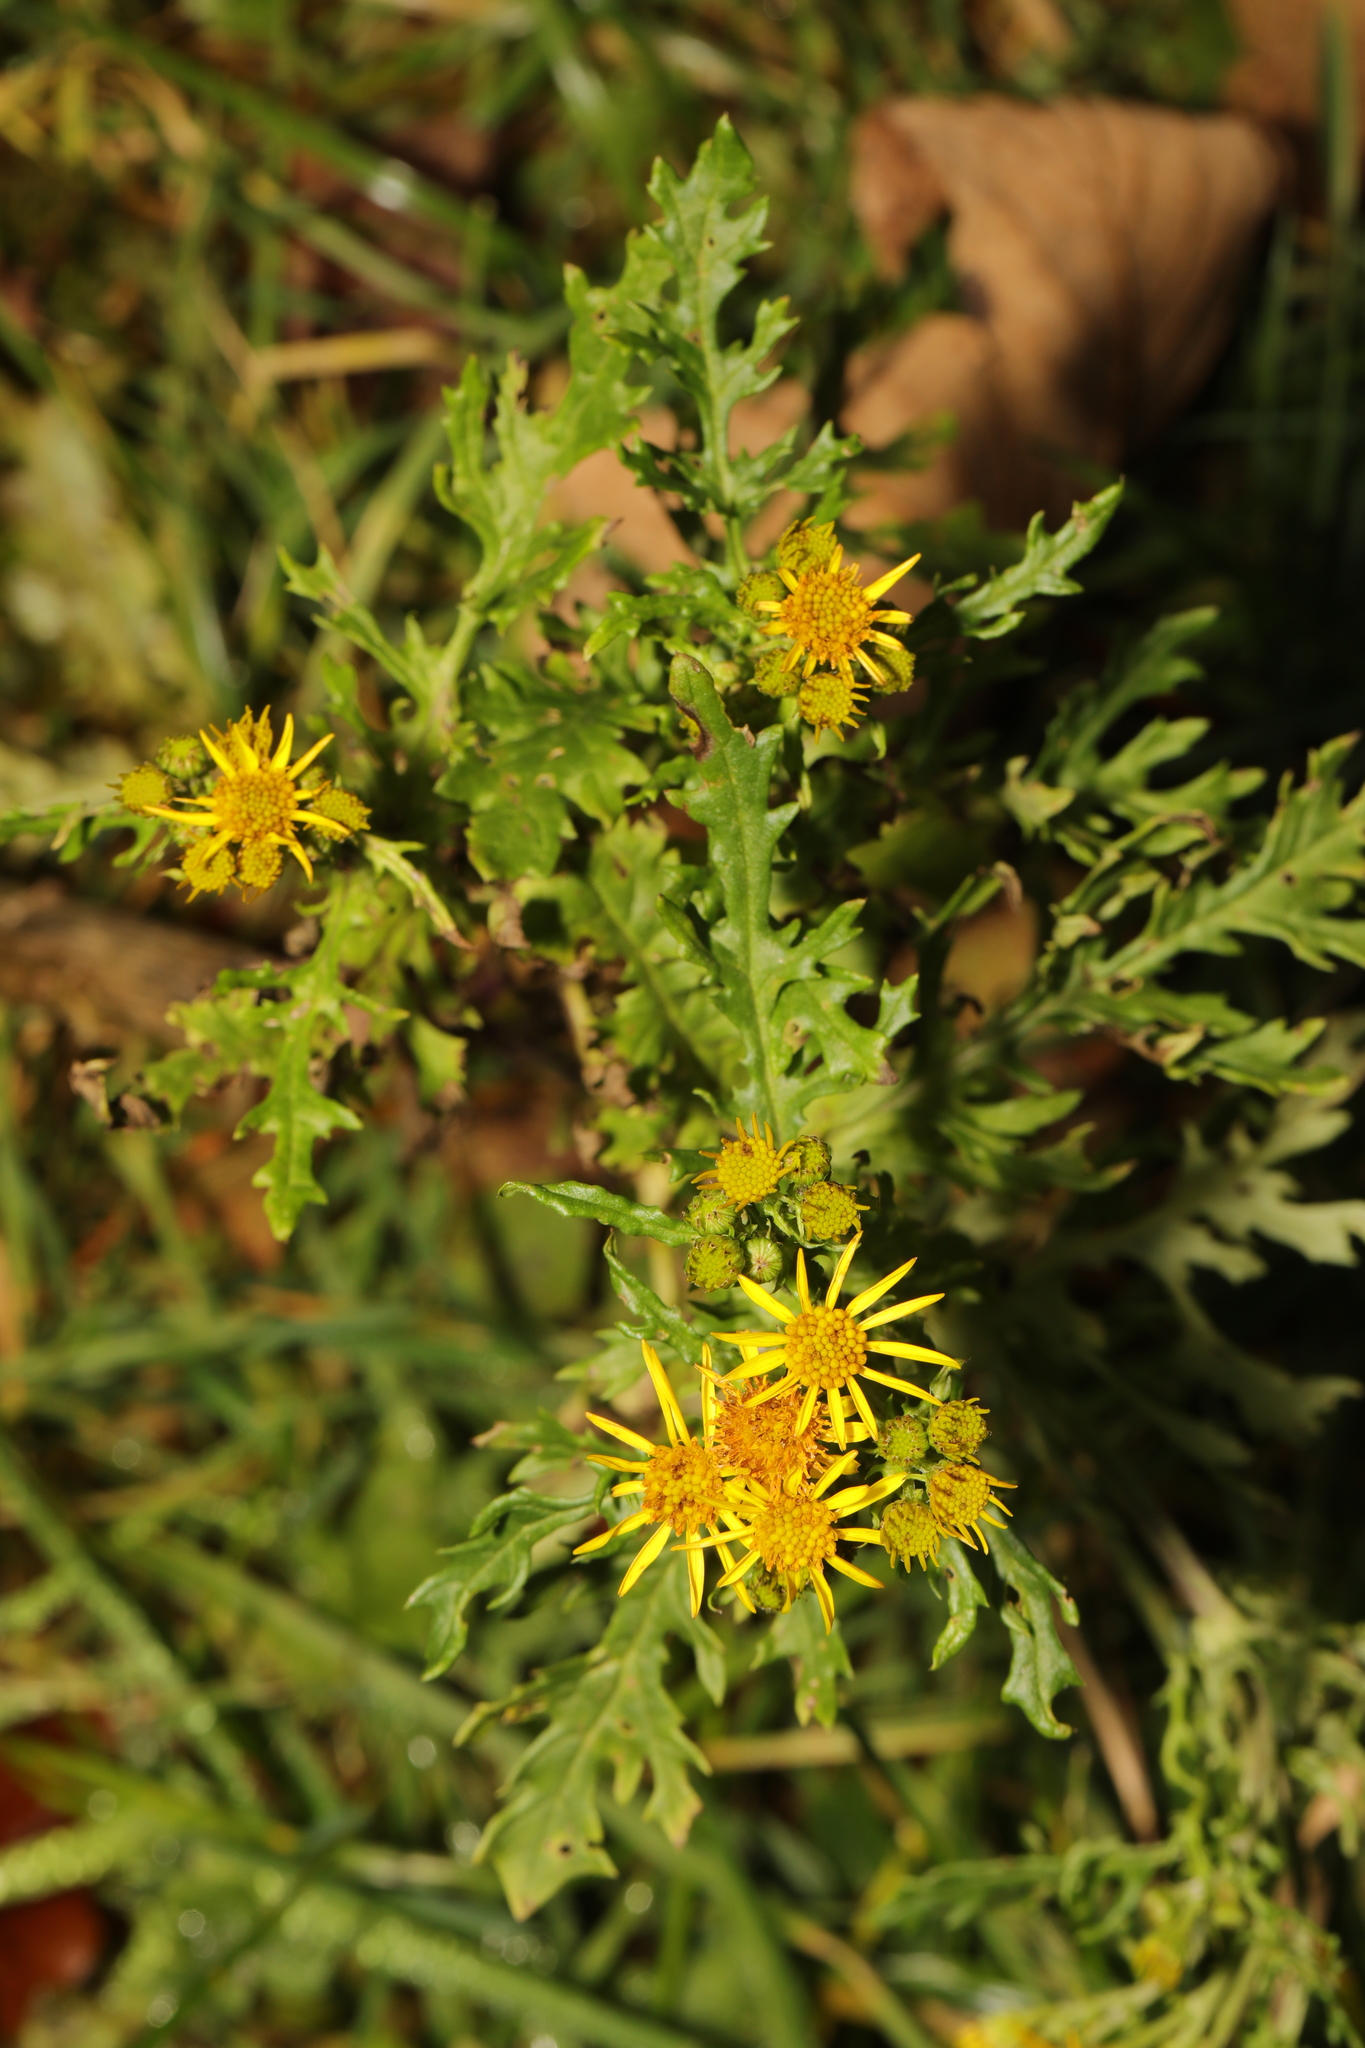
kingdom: Plantae
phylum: Tracheophyta
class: Magnoliopsida
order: Asterales
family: Asteraceae
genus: Jacobaea
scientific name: Jacobaea vulgaris
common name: Stinking willie
